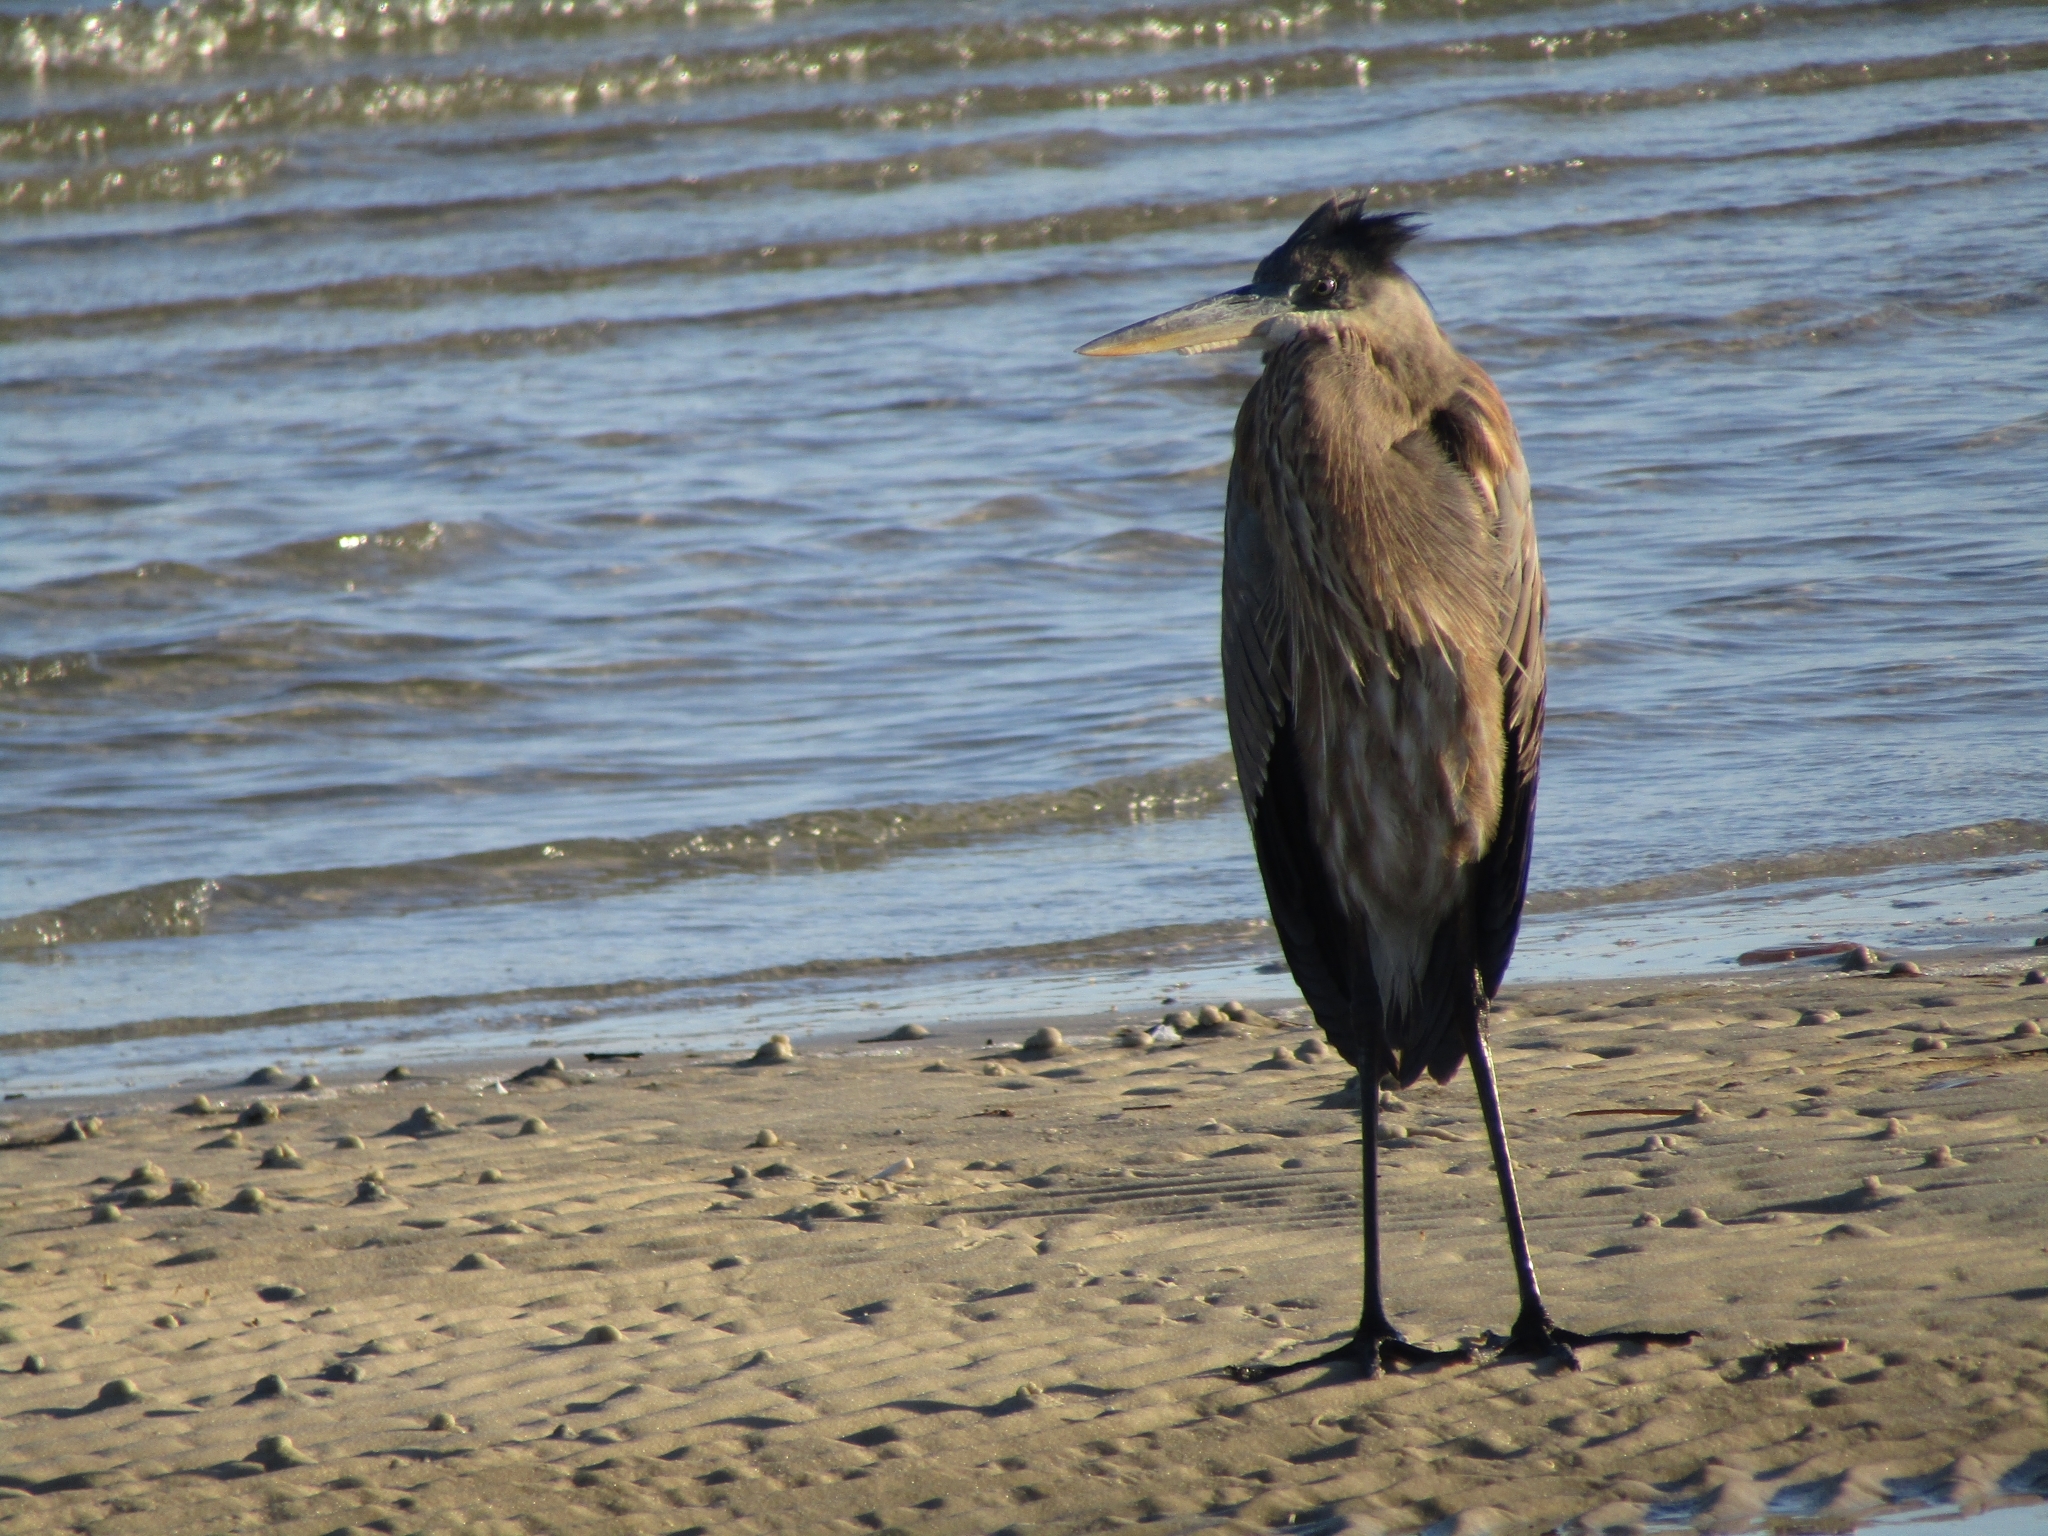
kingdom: Animalia
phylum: Chordata
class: Aves
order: Pelecaniformes
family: Ardeidae
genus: Ardea
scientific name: Ardea herodias
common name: Great blue heron
